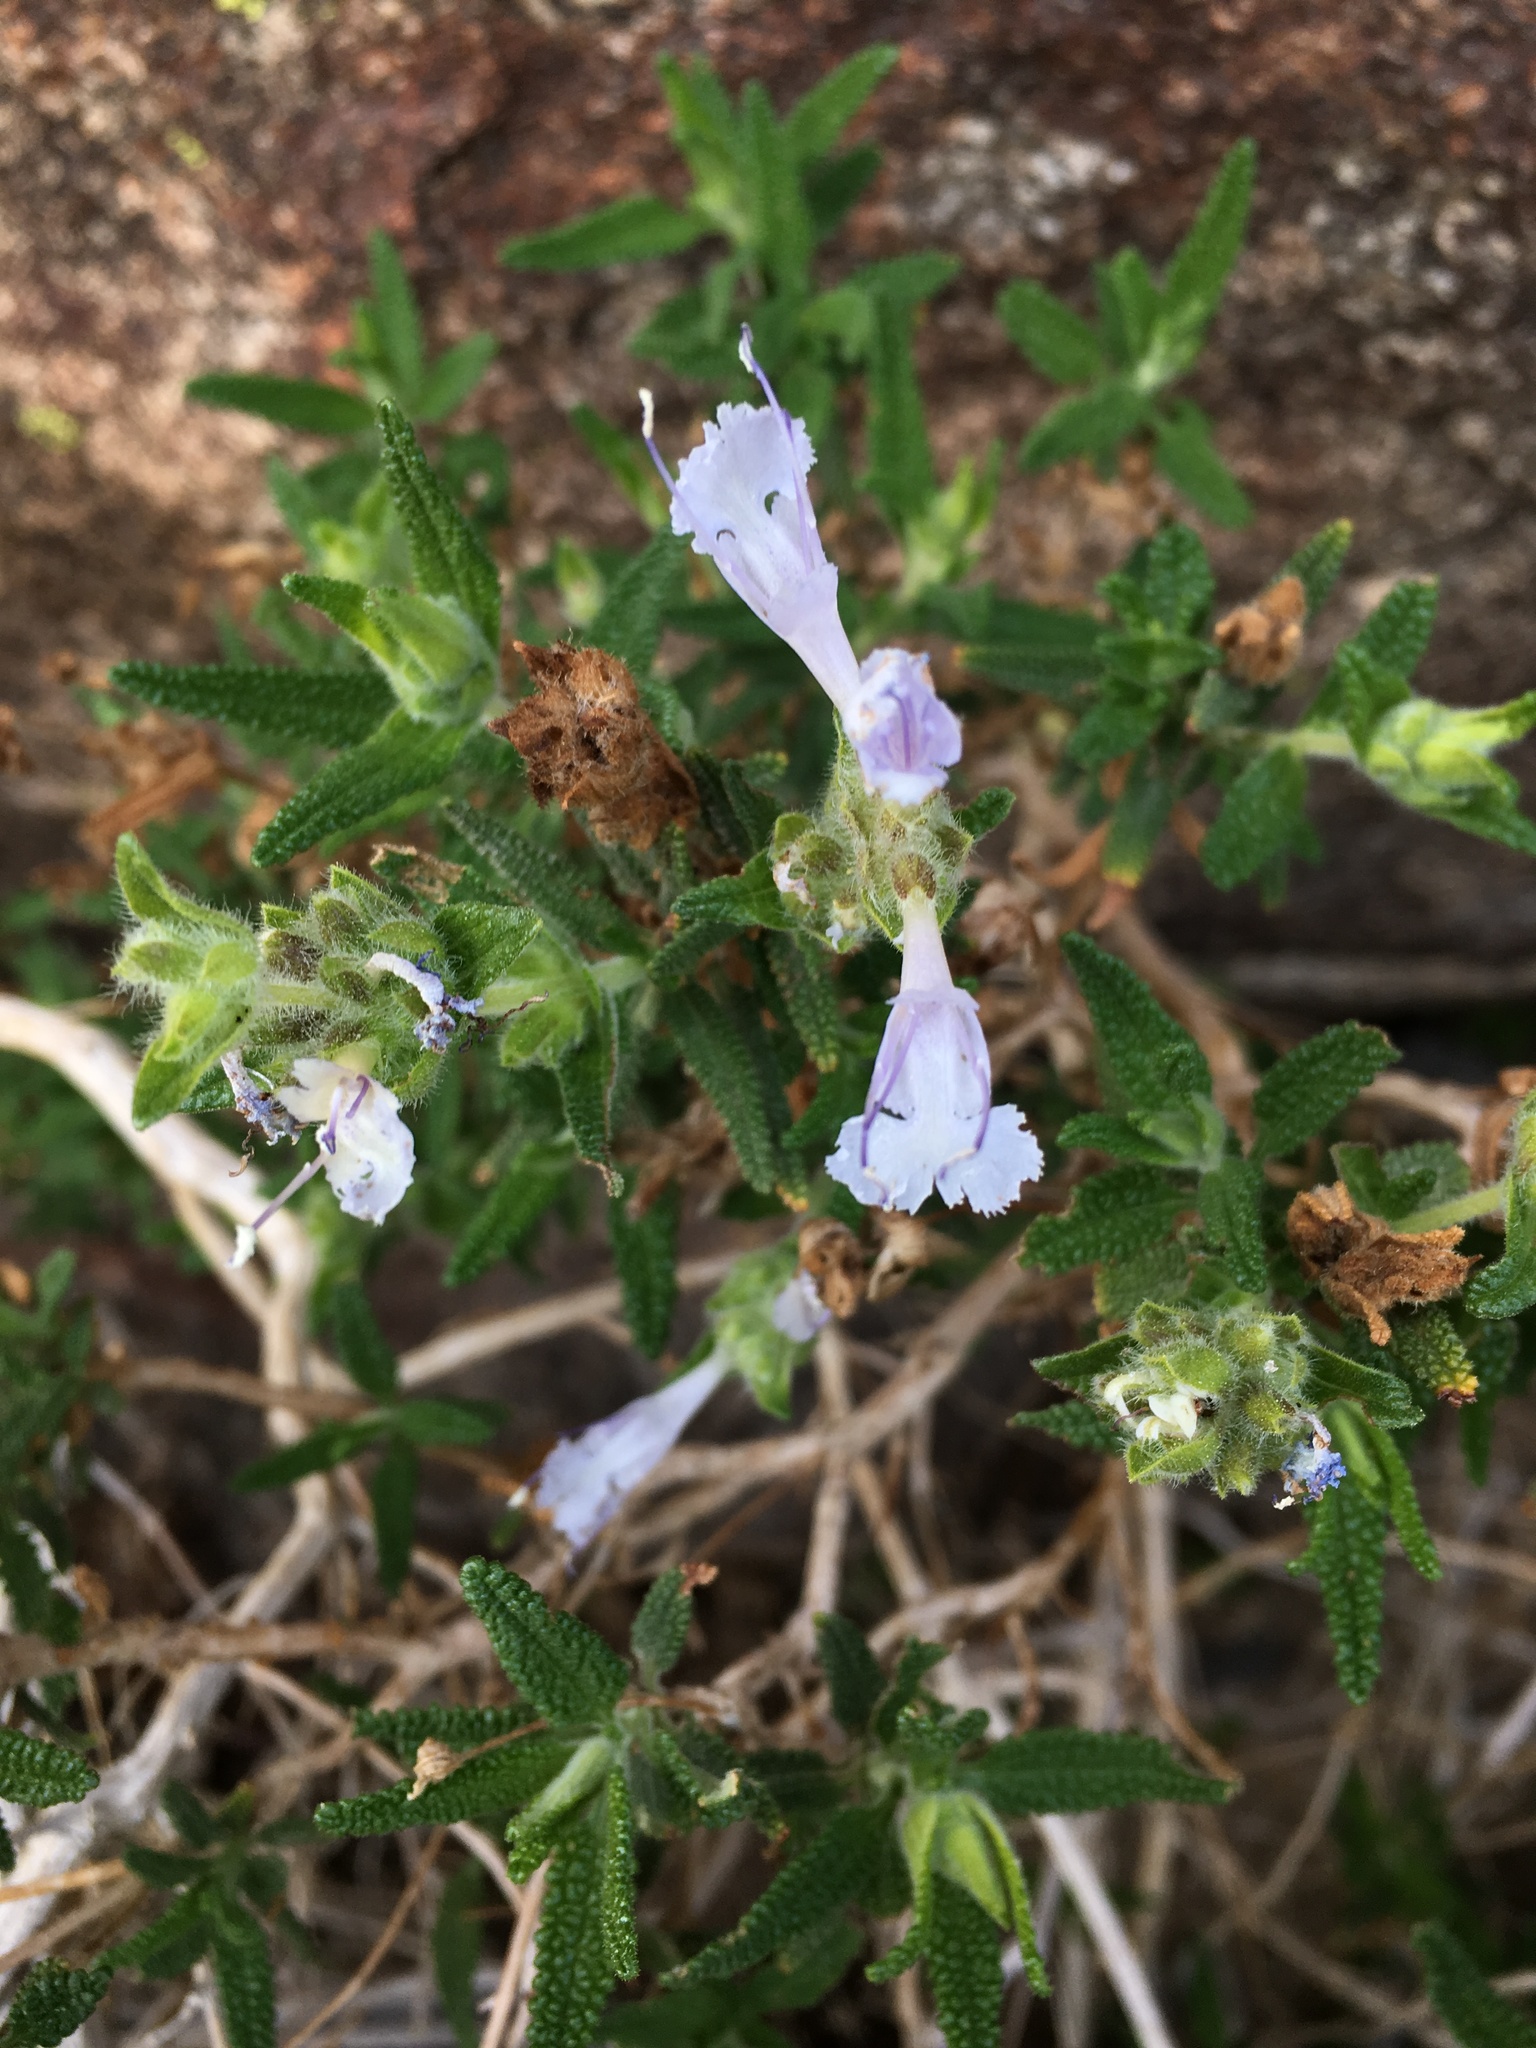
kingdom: Plantae
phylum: Tracheophyta
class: Magnoliopsida
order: Lamiales
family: Lamiaceae
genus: Salvia
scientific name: Salvia eremostachya
